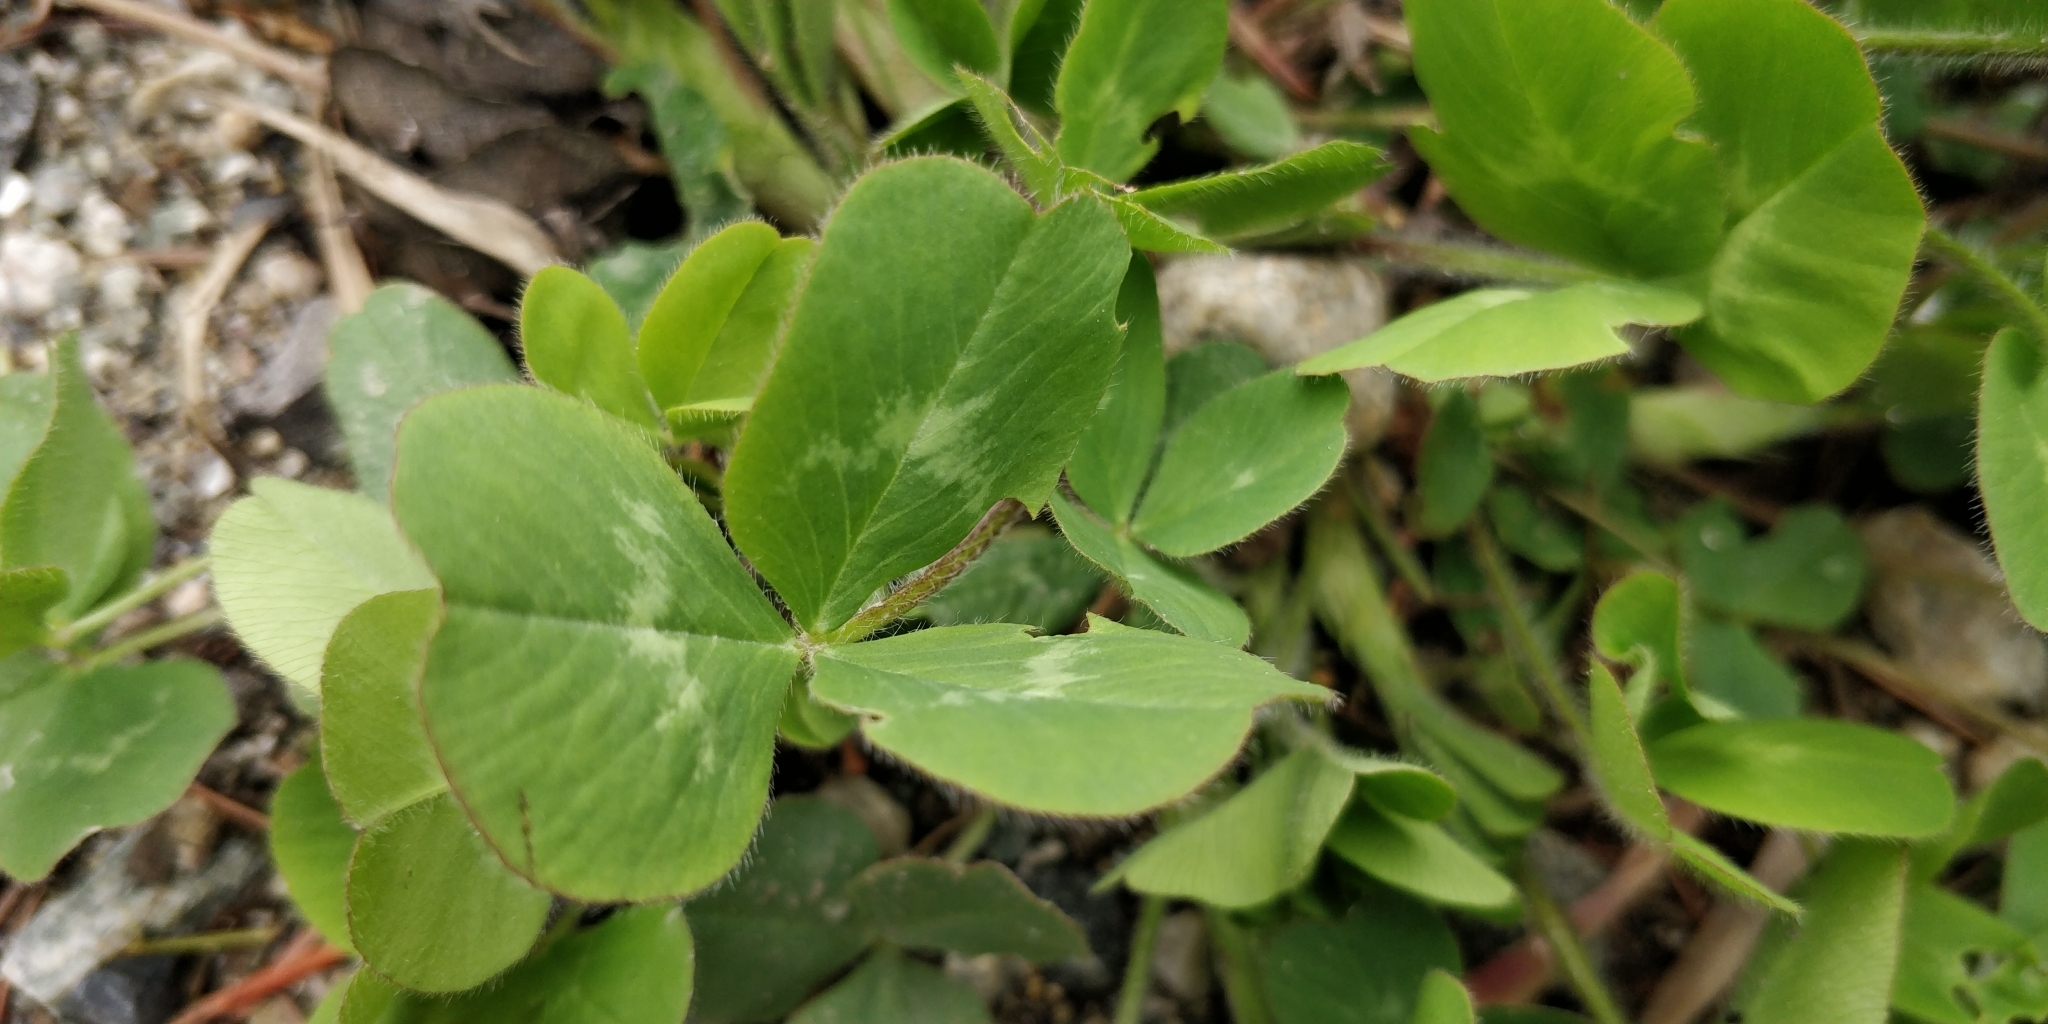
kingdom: Plantae
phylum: Tracheophyta
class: Magnoliopsida
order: Fabales
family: Fabaceae
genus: Trifolium
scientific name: Trifolium pratense
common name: Red clover
